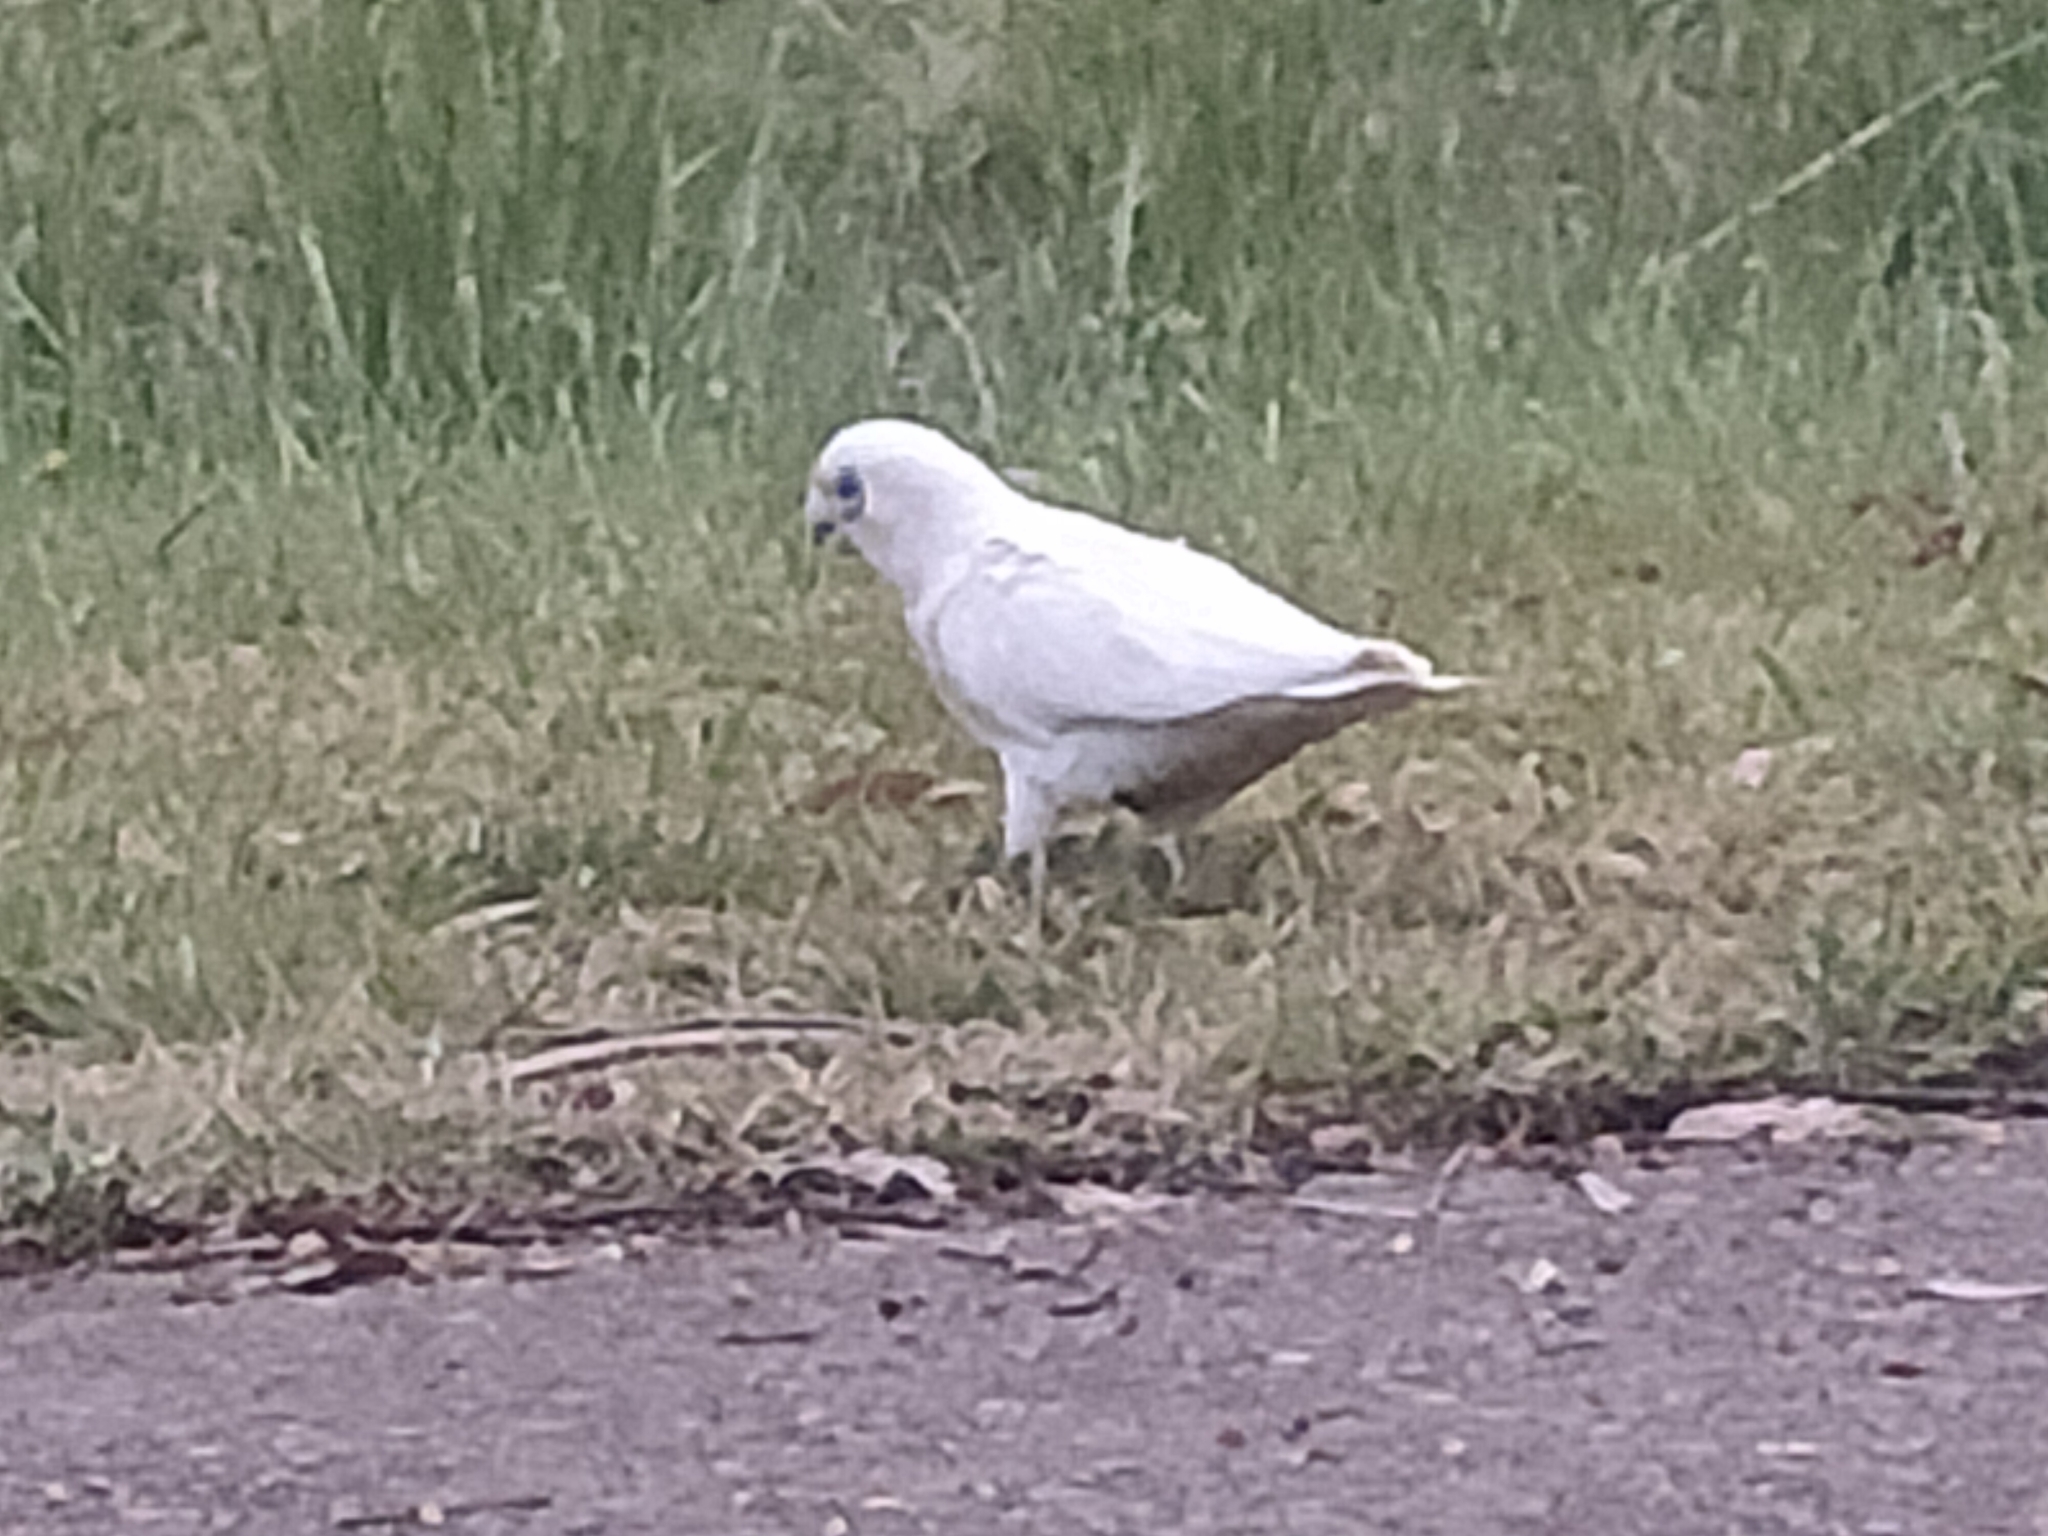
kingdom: Animalia
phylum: Chordata
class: Aves
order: Psittaciformes
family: Psittacidae
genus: Cacatua
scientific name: Cacatua sanguinea
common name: Little corella
